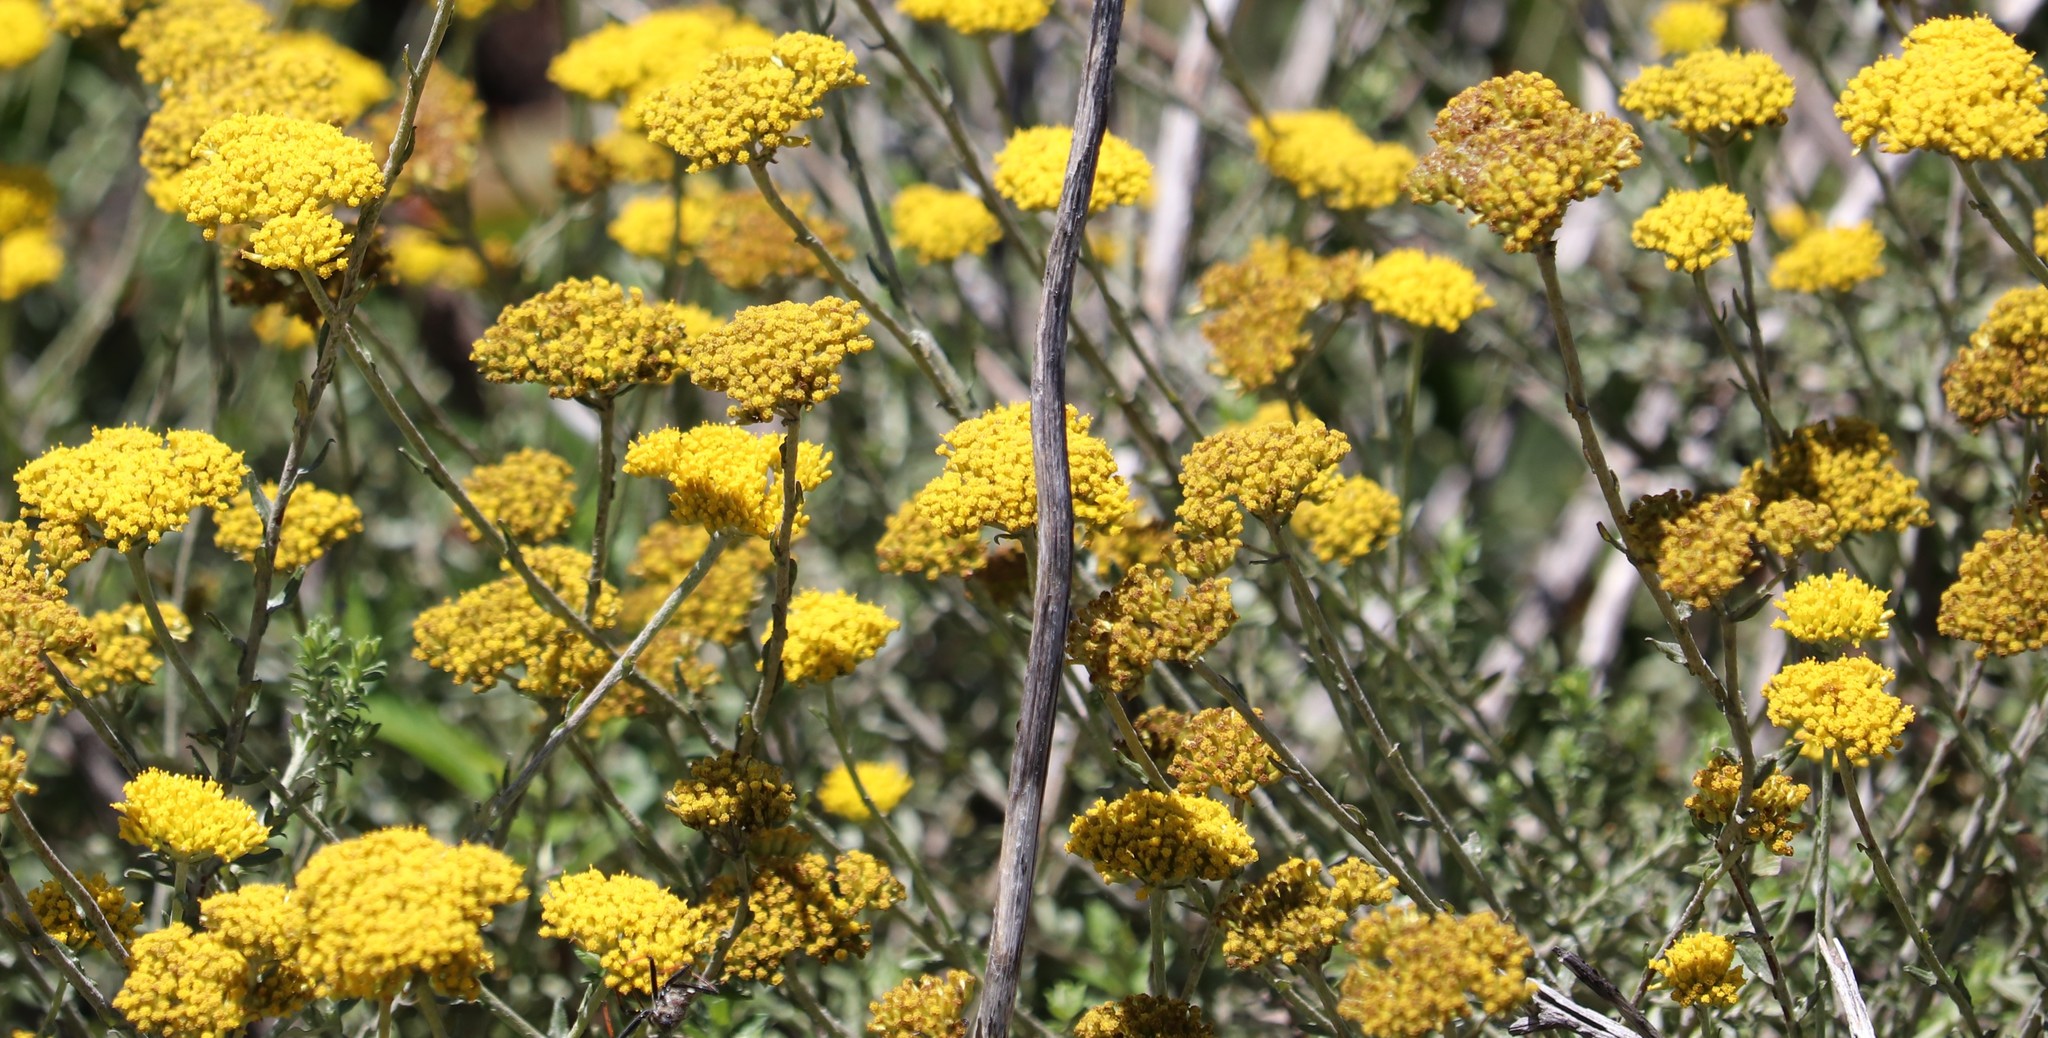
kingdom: Plantae
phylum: Tracheophyta
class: Magnoliopsida
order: Asterales
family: Asteraceae
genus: Helichrysum
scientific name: Helichrysum cymosum
